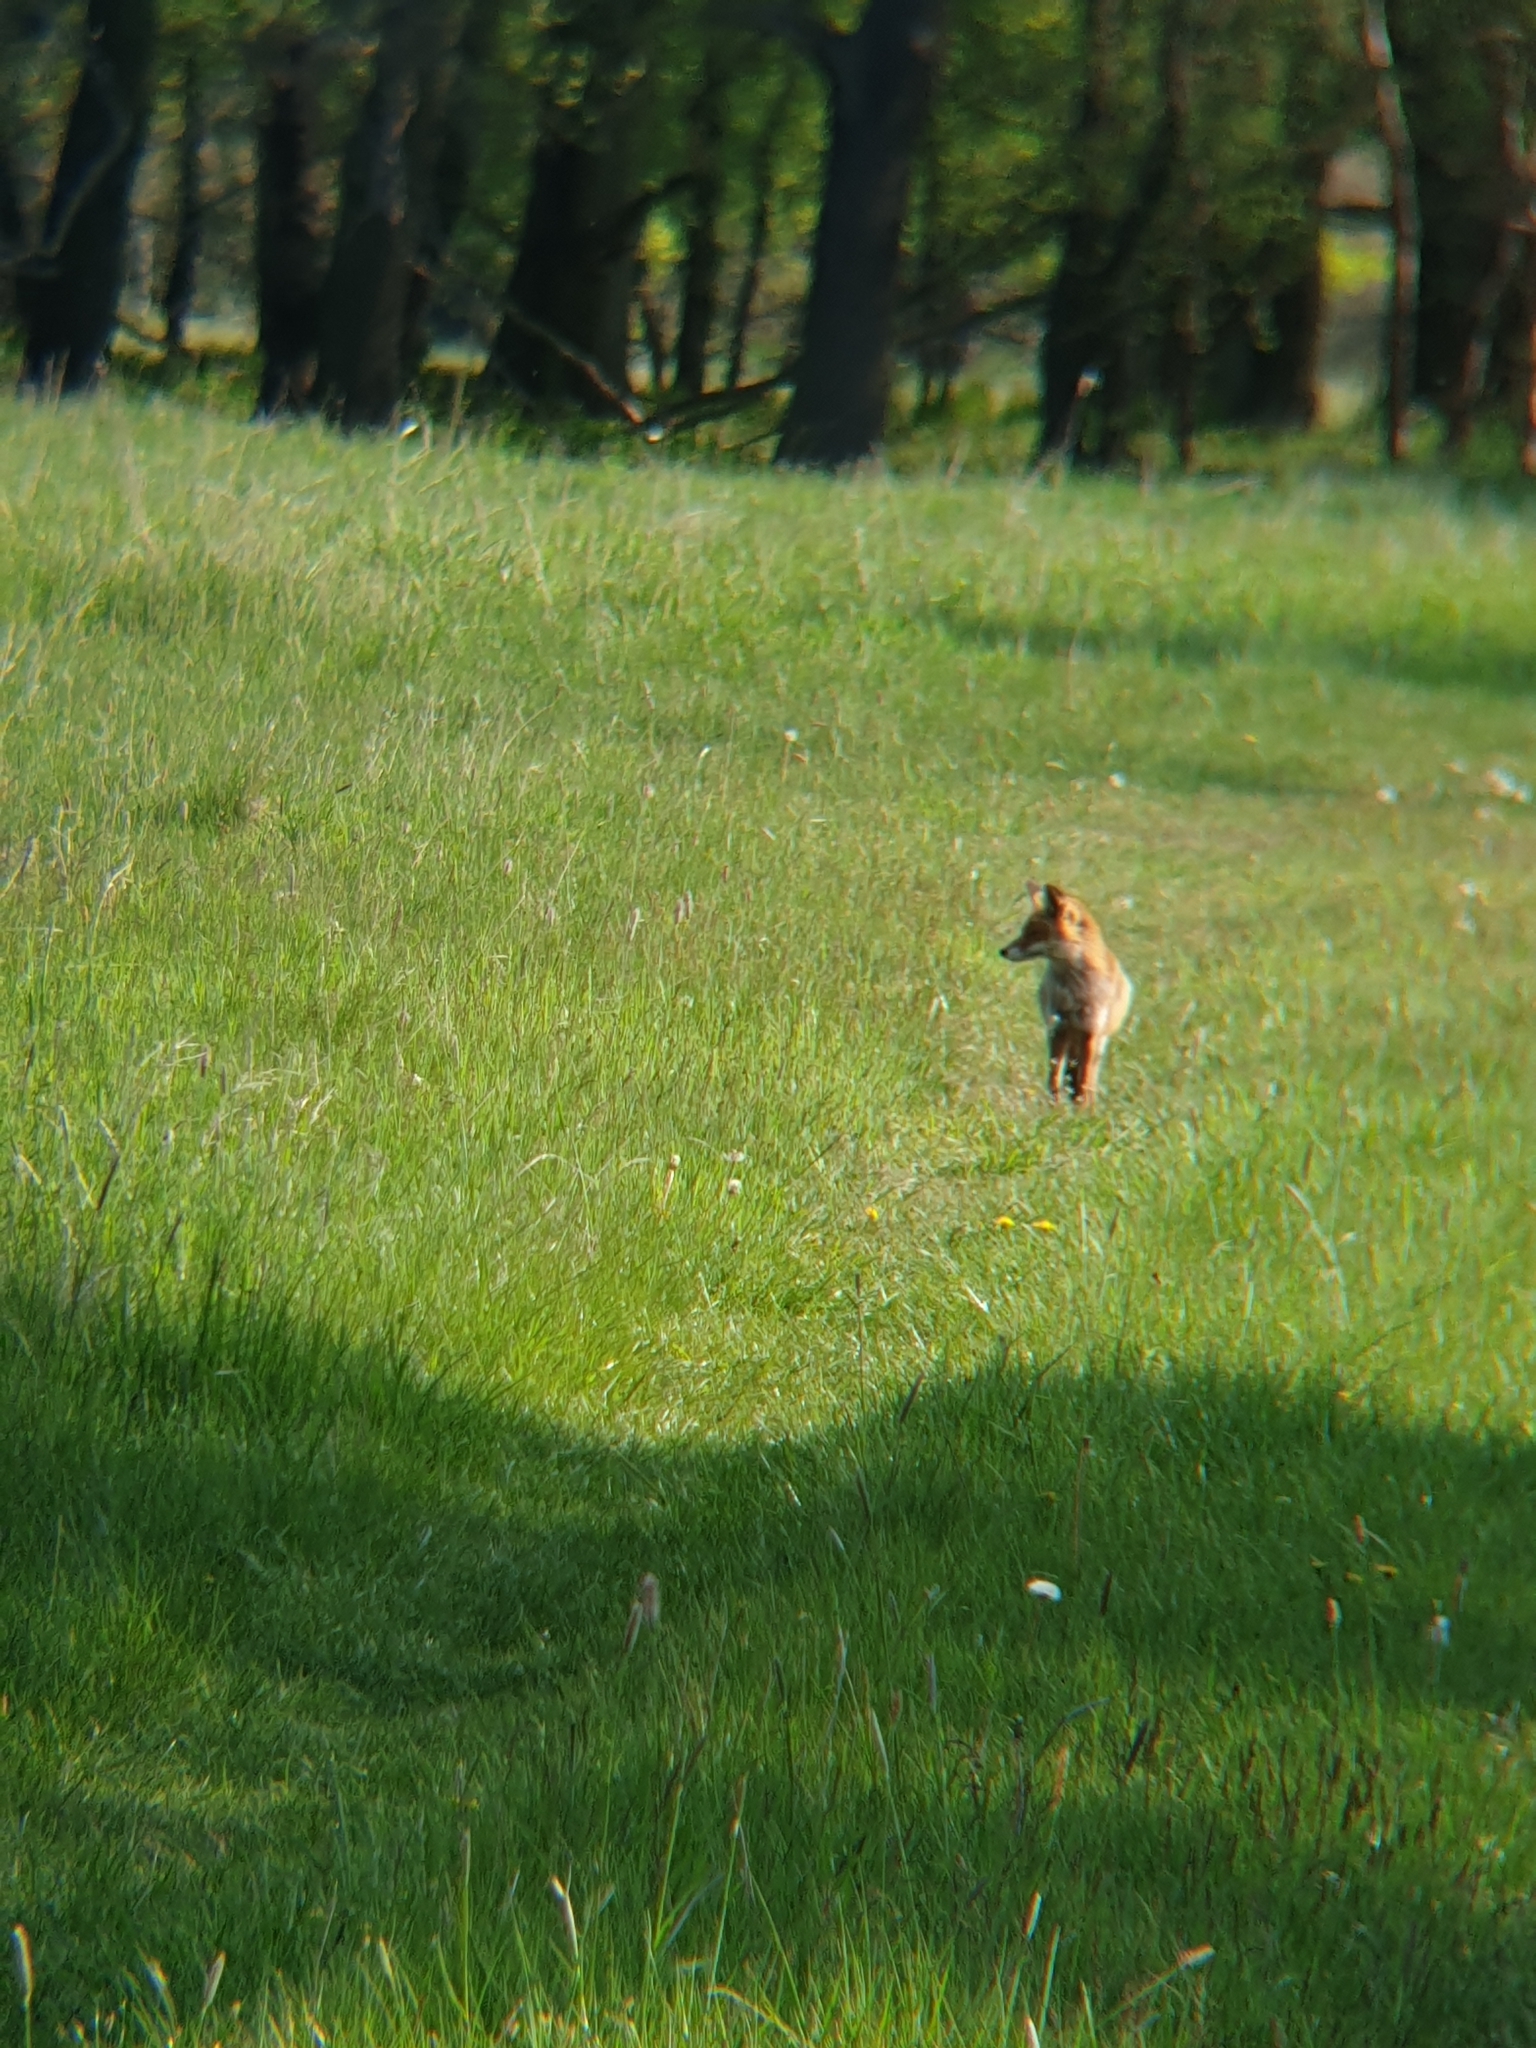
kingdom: Animalia
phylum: Chordata
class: Mammalia
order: Carnivora
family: Canidae
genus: Vulpes
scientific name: Vulpes vulpes
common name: Red fox
